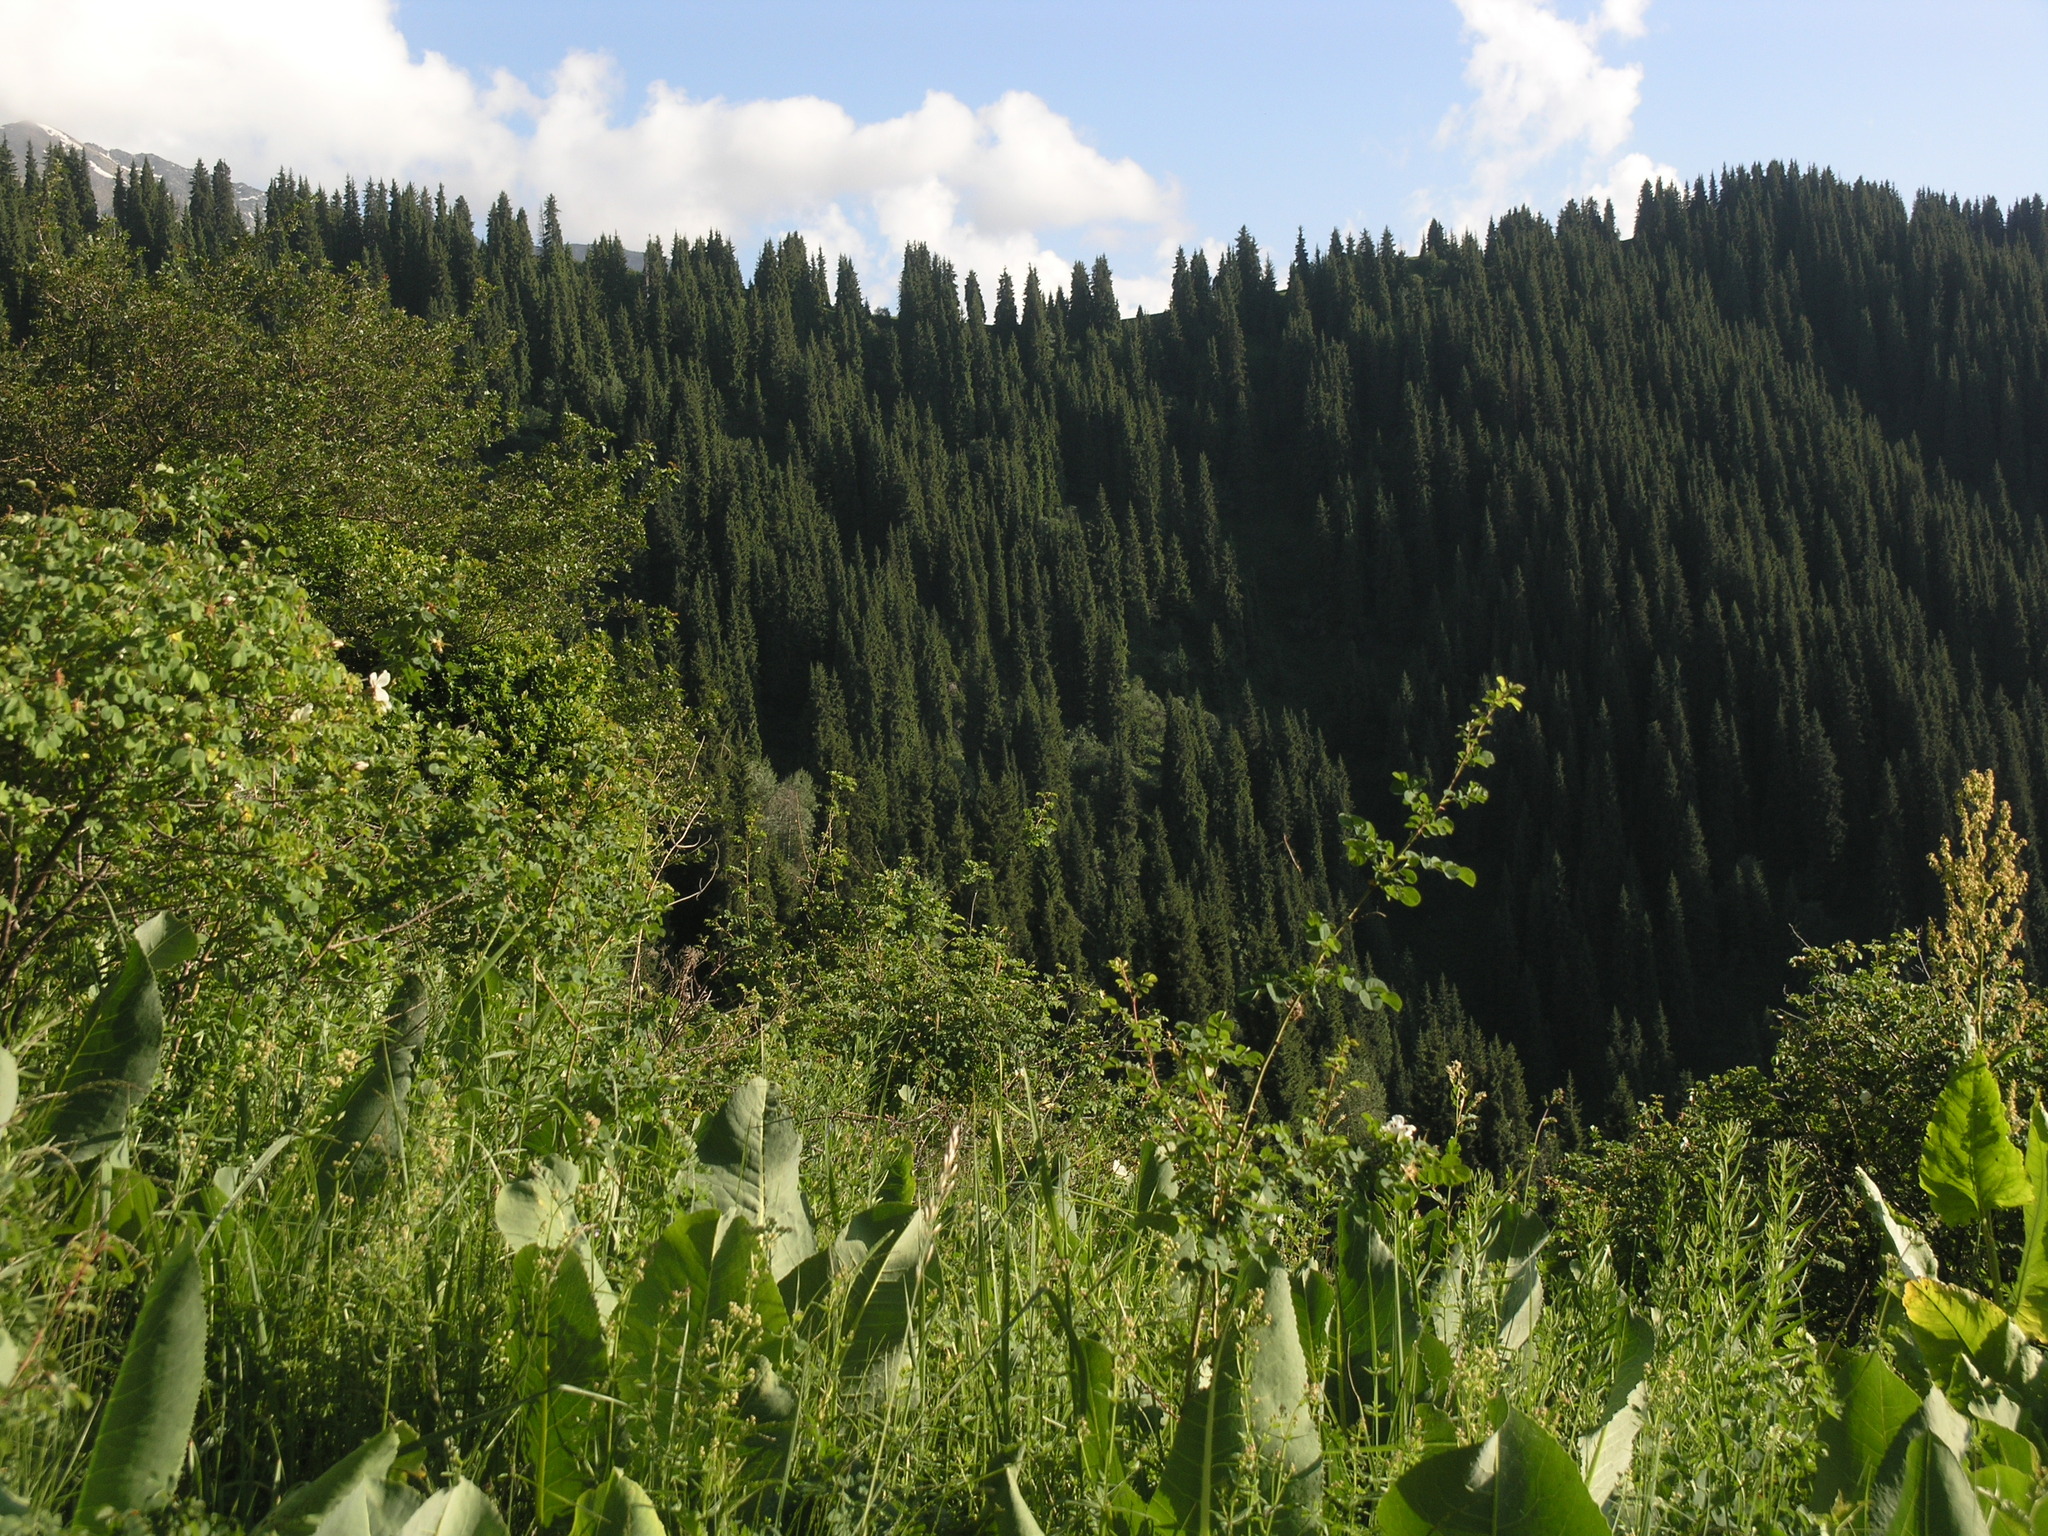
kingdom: Plantae
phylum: Tracheophyta
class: Magnoliopsida
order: Rosales
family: Rosaceae
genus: Rosa
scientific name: Rosa webbiana
